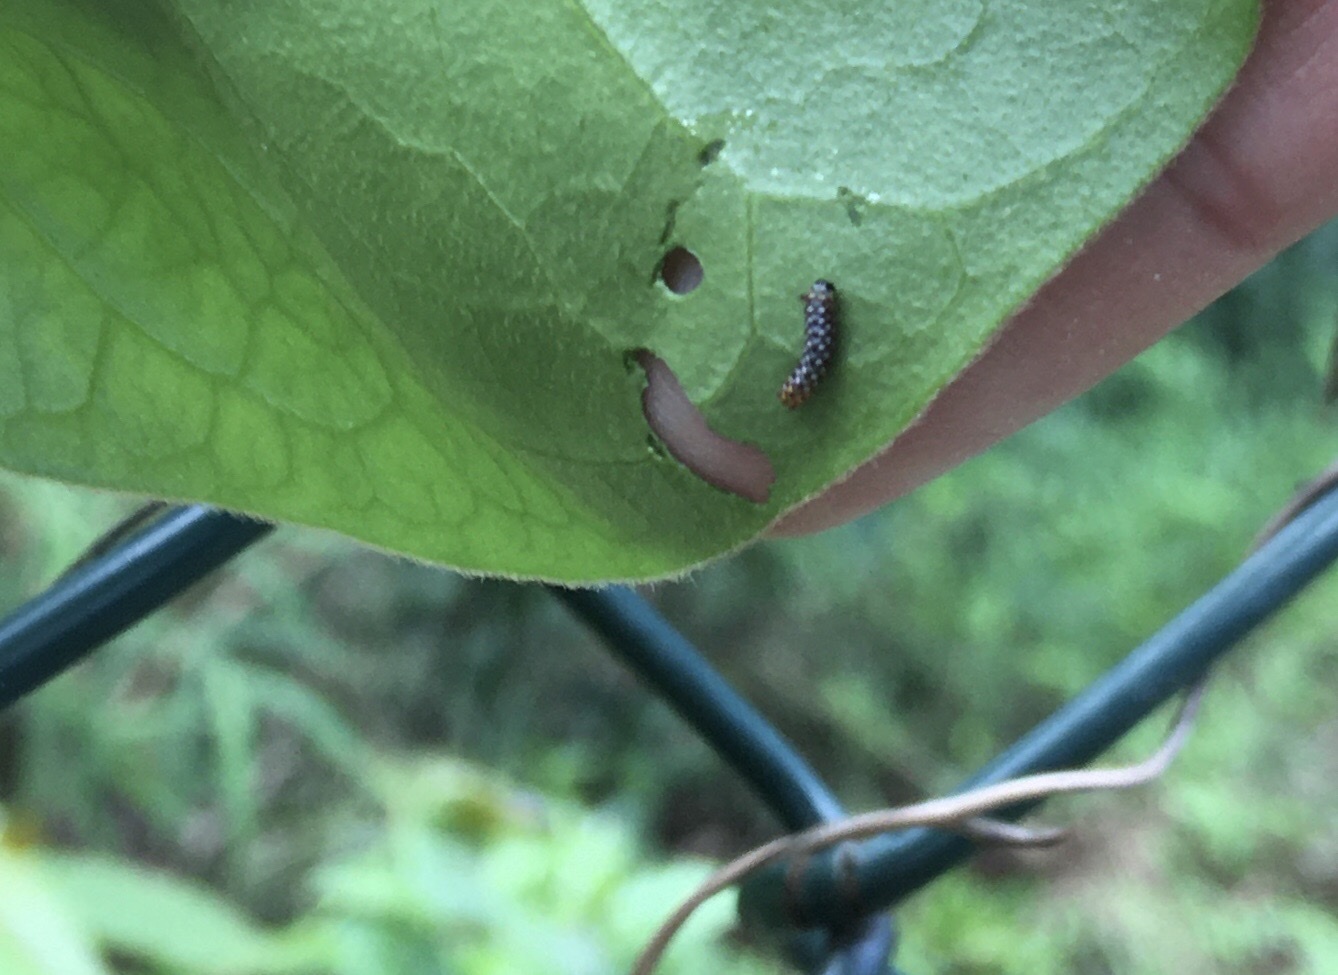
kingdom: Animalia
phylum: Arthropoda
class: Insecta
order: Lepidoptera
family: Nymphalidae
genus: Parantica
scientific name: Parantica aglea
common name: Glassy tiger
